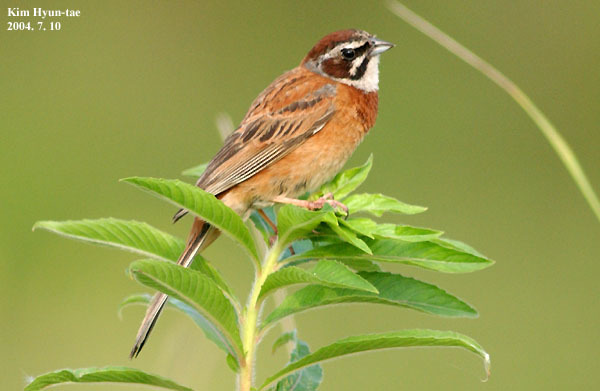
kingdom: Animalia
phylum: Chordata
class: Aves
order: Passeriformes
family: Emberizidae
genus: Emberiza
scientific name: Emberiza cioides
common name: Meadow bunting
